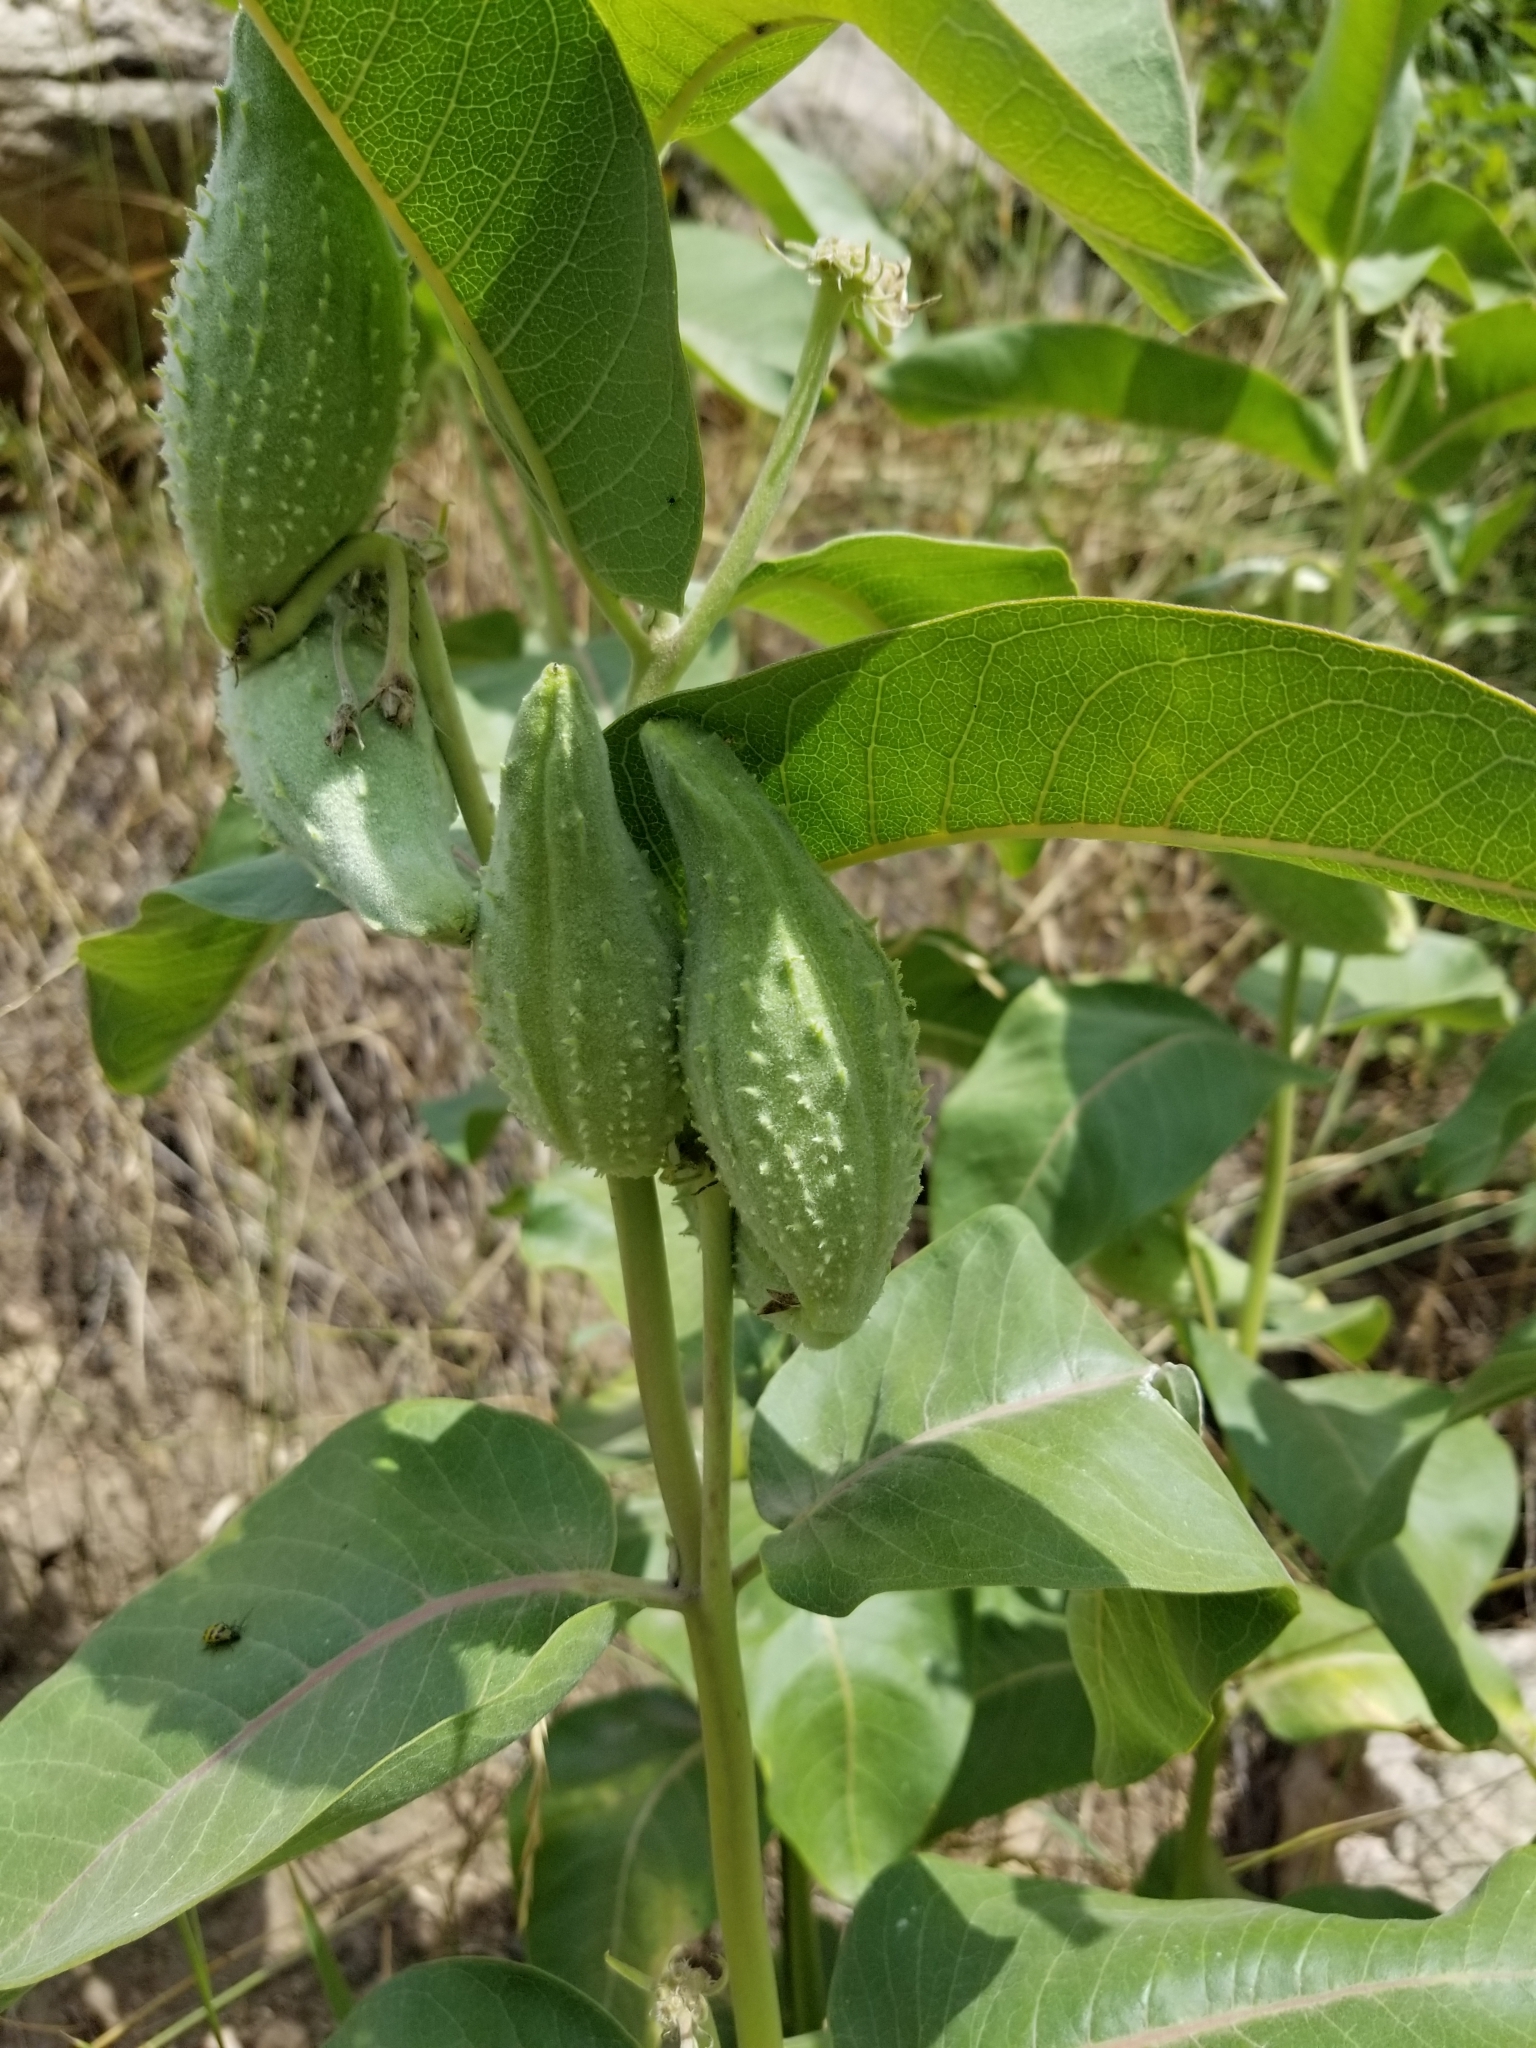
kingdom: Plantae
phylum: Tracheophyta
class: Magnoliopsida
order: Gentianales
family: Apocynaceae
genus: Asclepias
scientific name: Asclepias speciosa
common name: Showy milkweed
